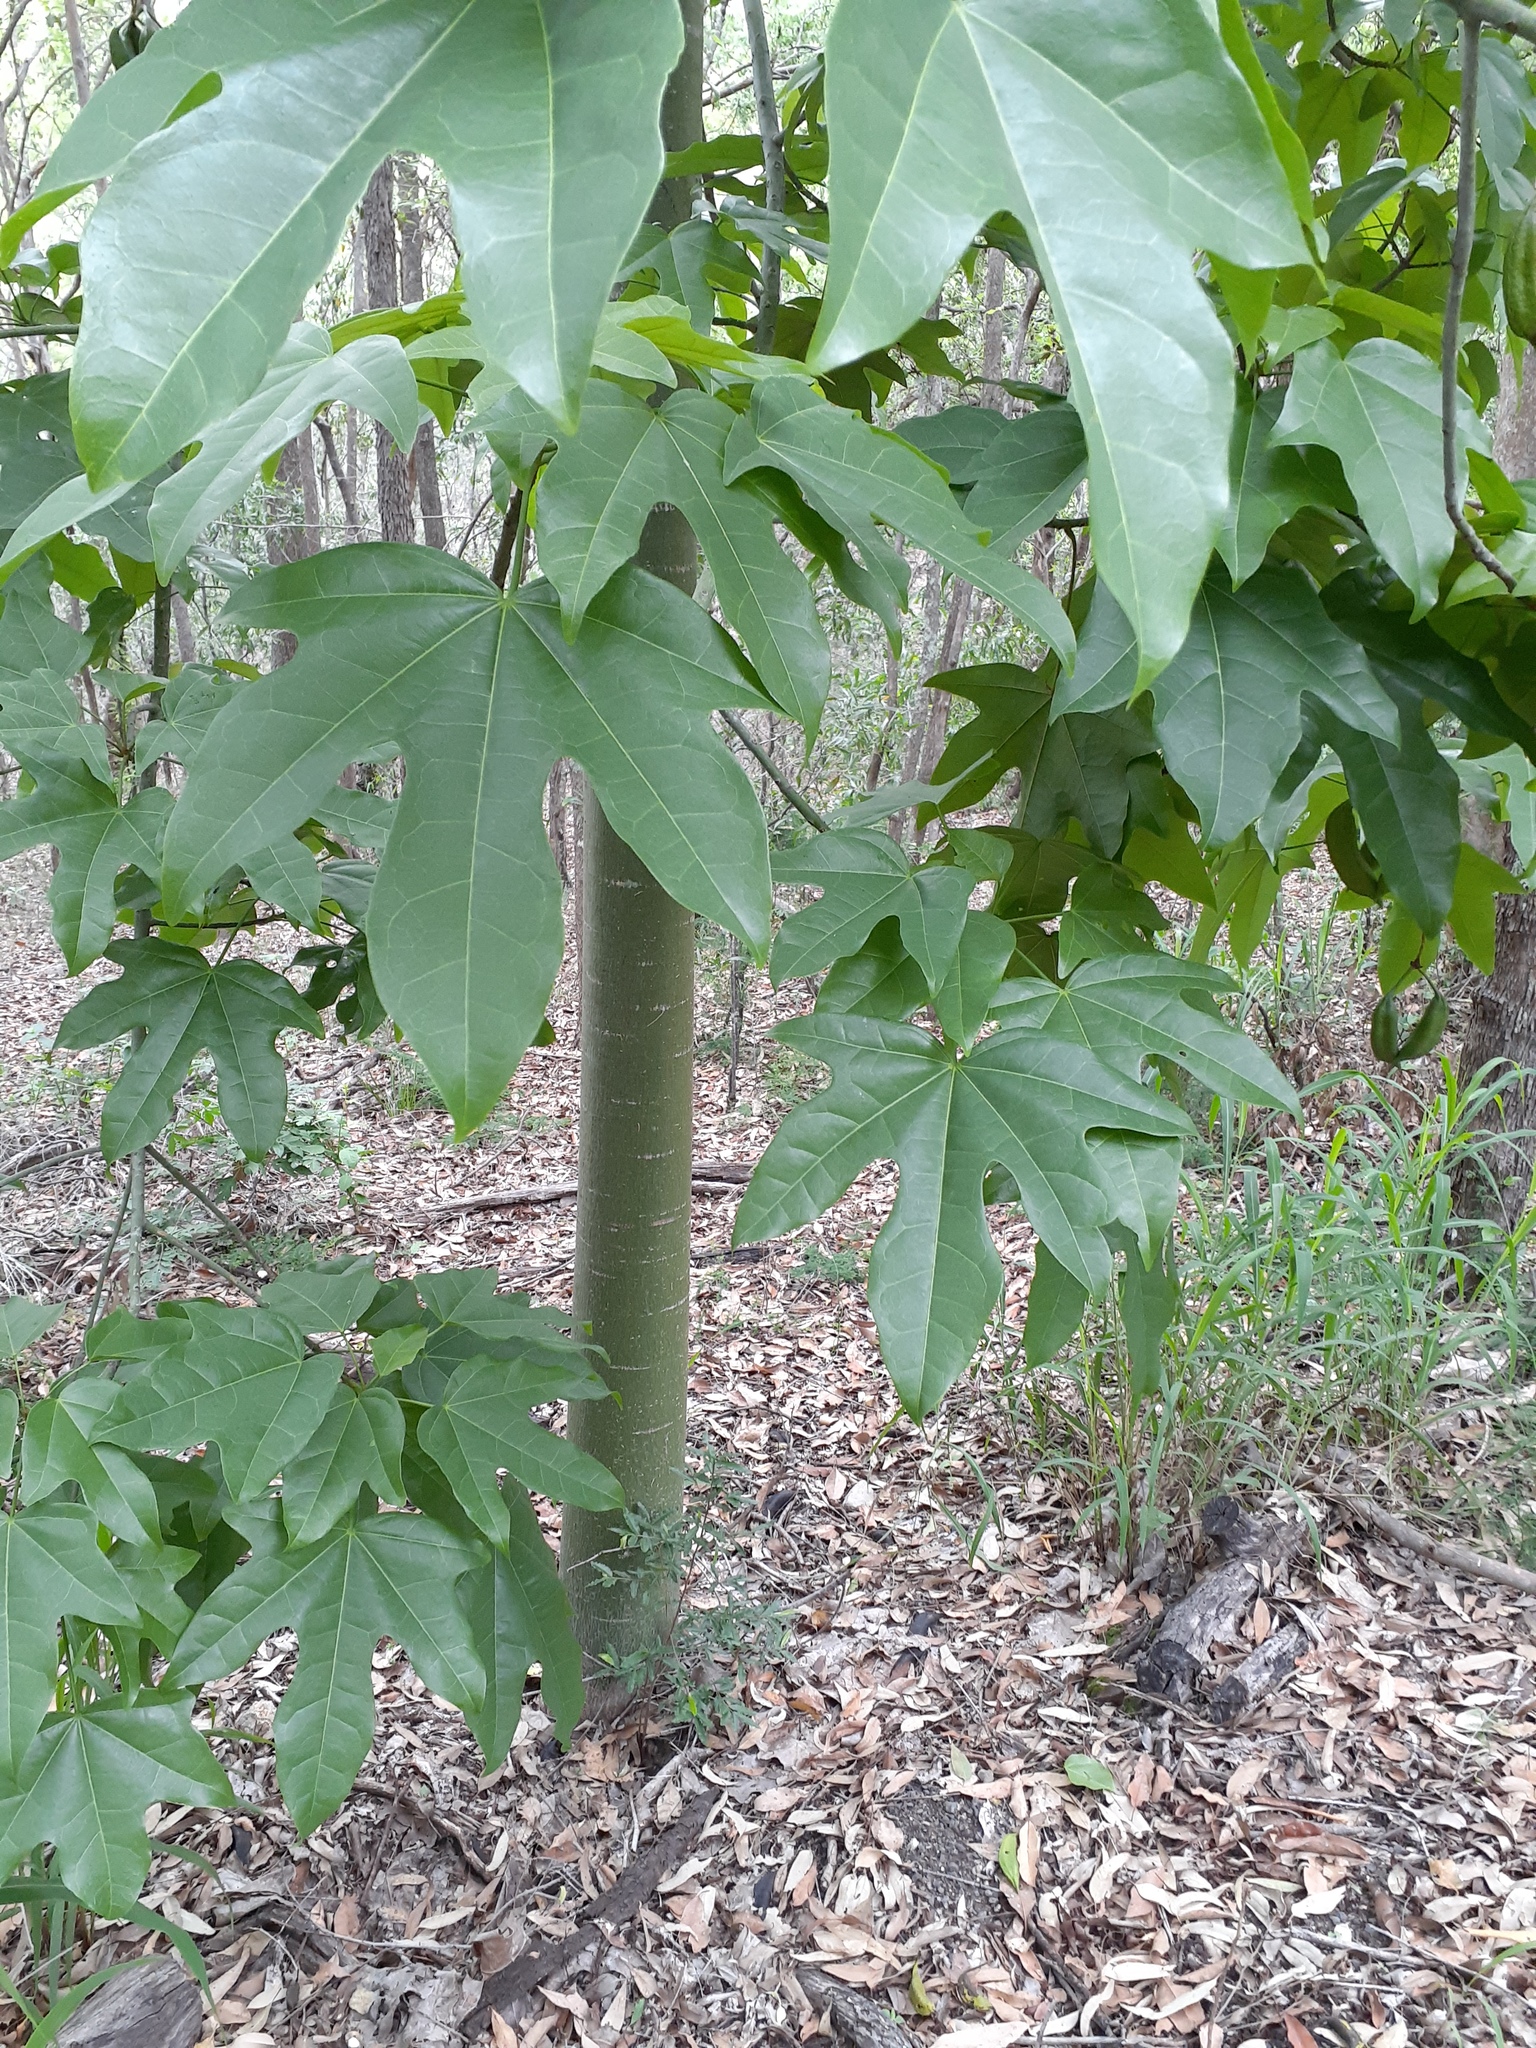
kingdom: Plantae
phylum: Tracheophyta
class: Magnoliopsida
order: Malvales
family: Malvaceae
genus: Brachychiton
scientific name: Brachychiton acerifolius
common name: Illawarra flame tree
